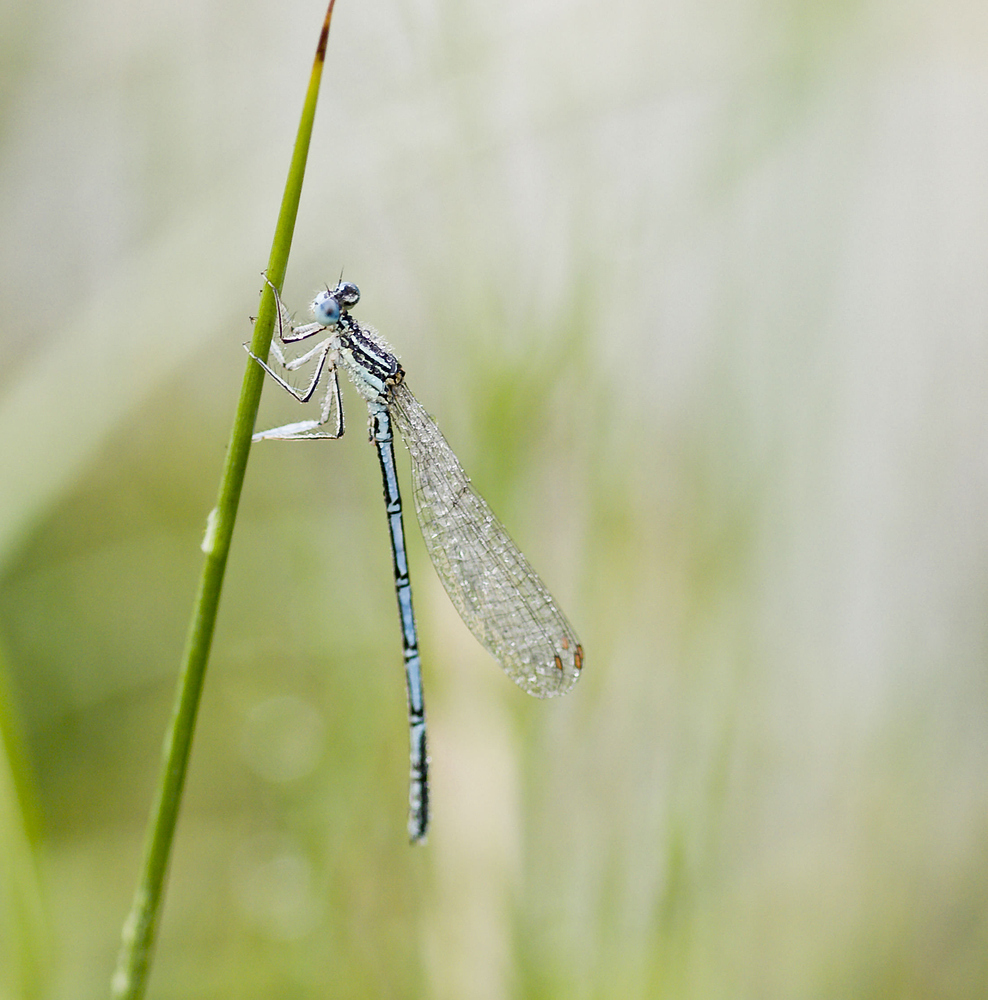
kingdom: Animalia
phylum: Arthropoda
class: Insecta
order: Odonata
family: Platycnemididae
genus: Platycnemis
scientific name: Platycnemis pennipes
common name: White-legged damselfly
